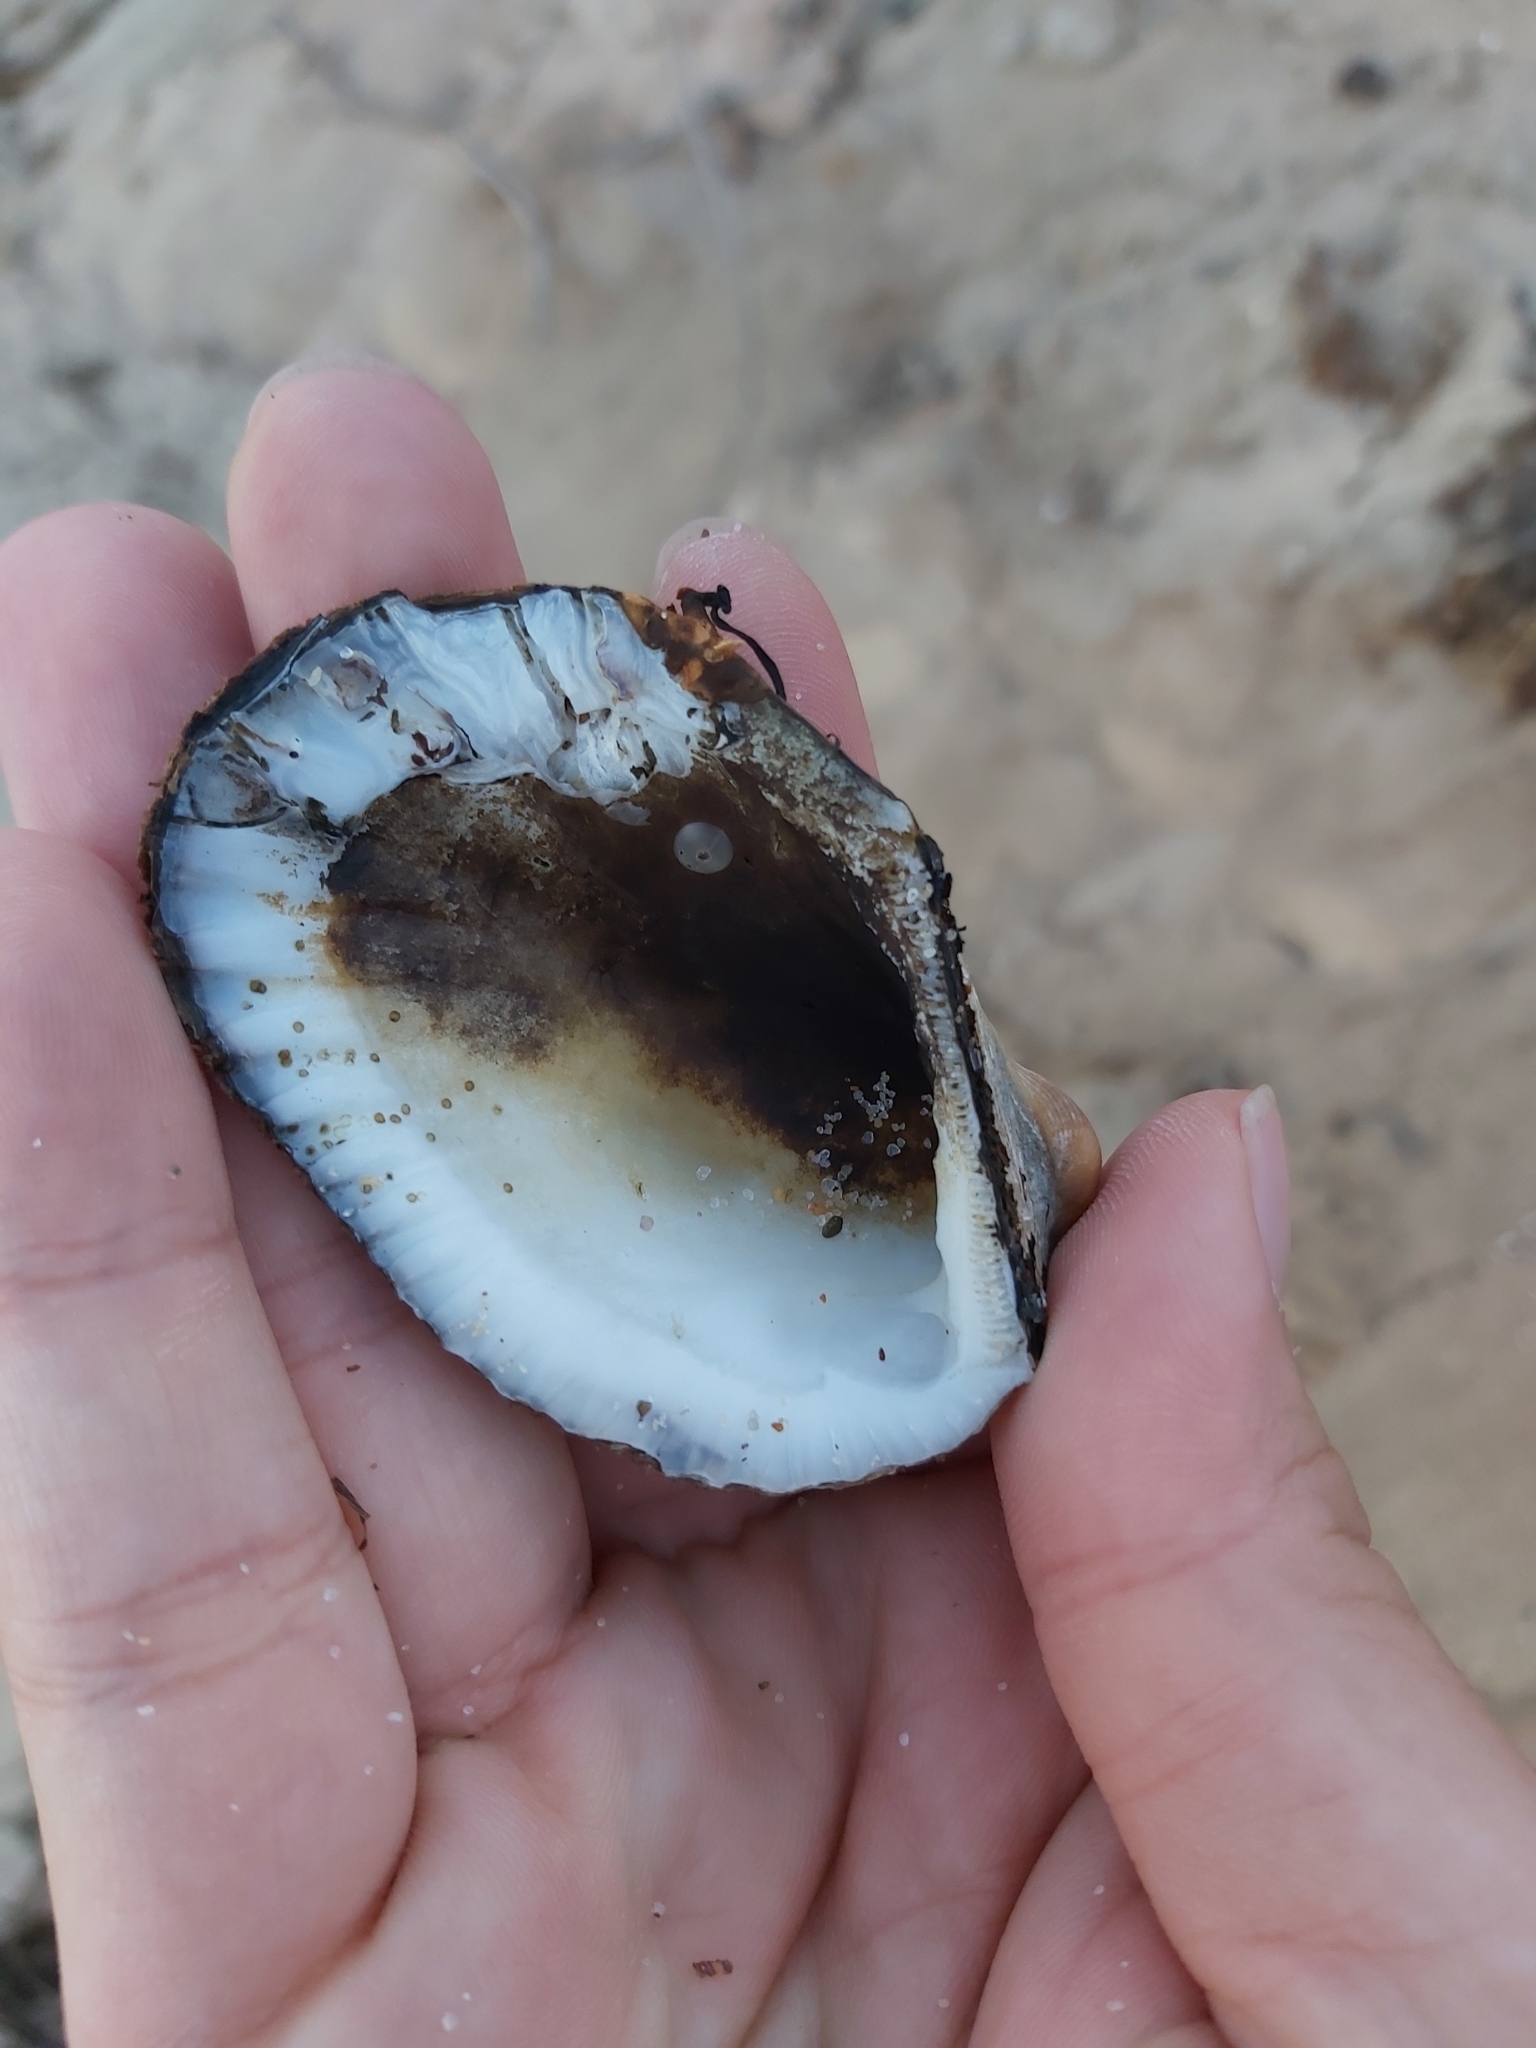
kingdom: Animalia
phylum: Mollusca
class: Bivalvia
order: Arcida
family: Arcidae
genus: Anadara
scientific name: Anadara trapezia
